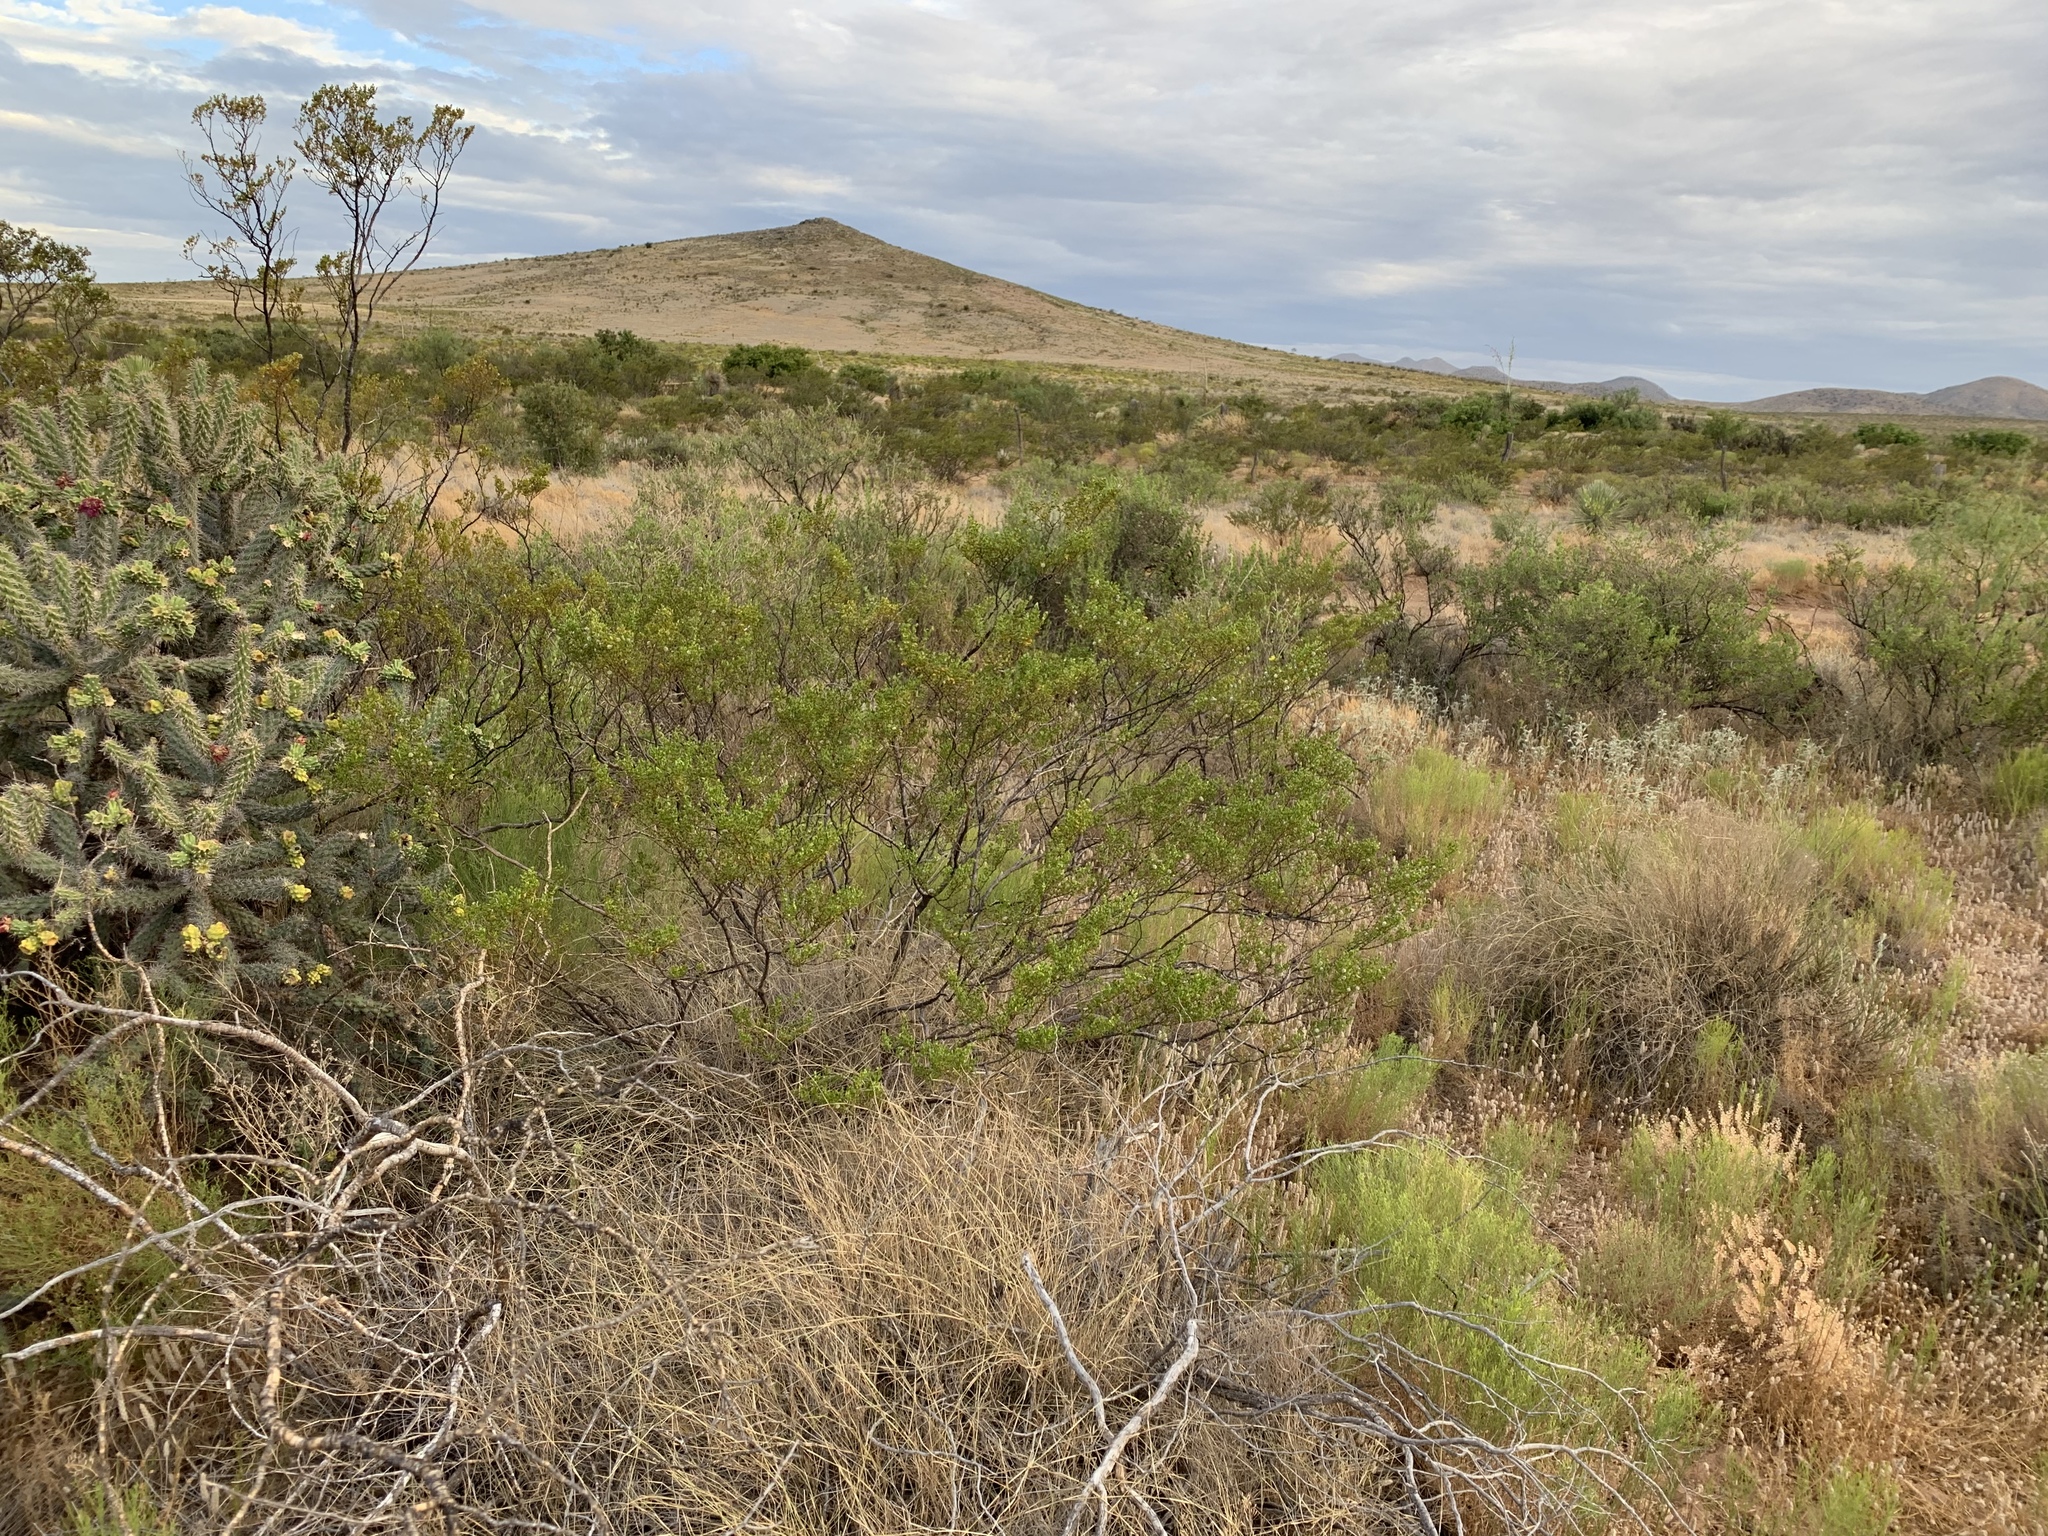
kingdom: Plantae
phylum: Tracheophyta
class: Magnoliopsida
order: Zygophyllales
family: Zygophyllaceae
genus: Larrea
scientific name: Larrea tridentata
